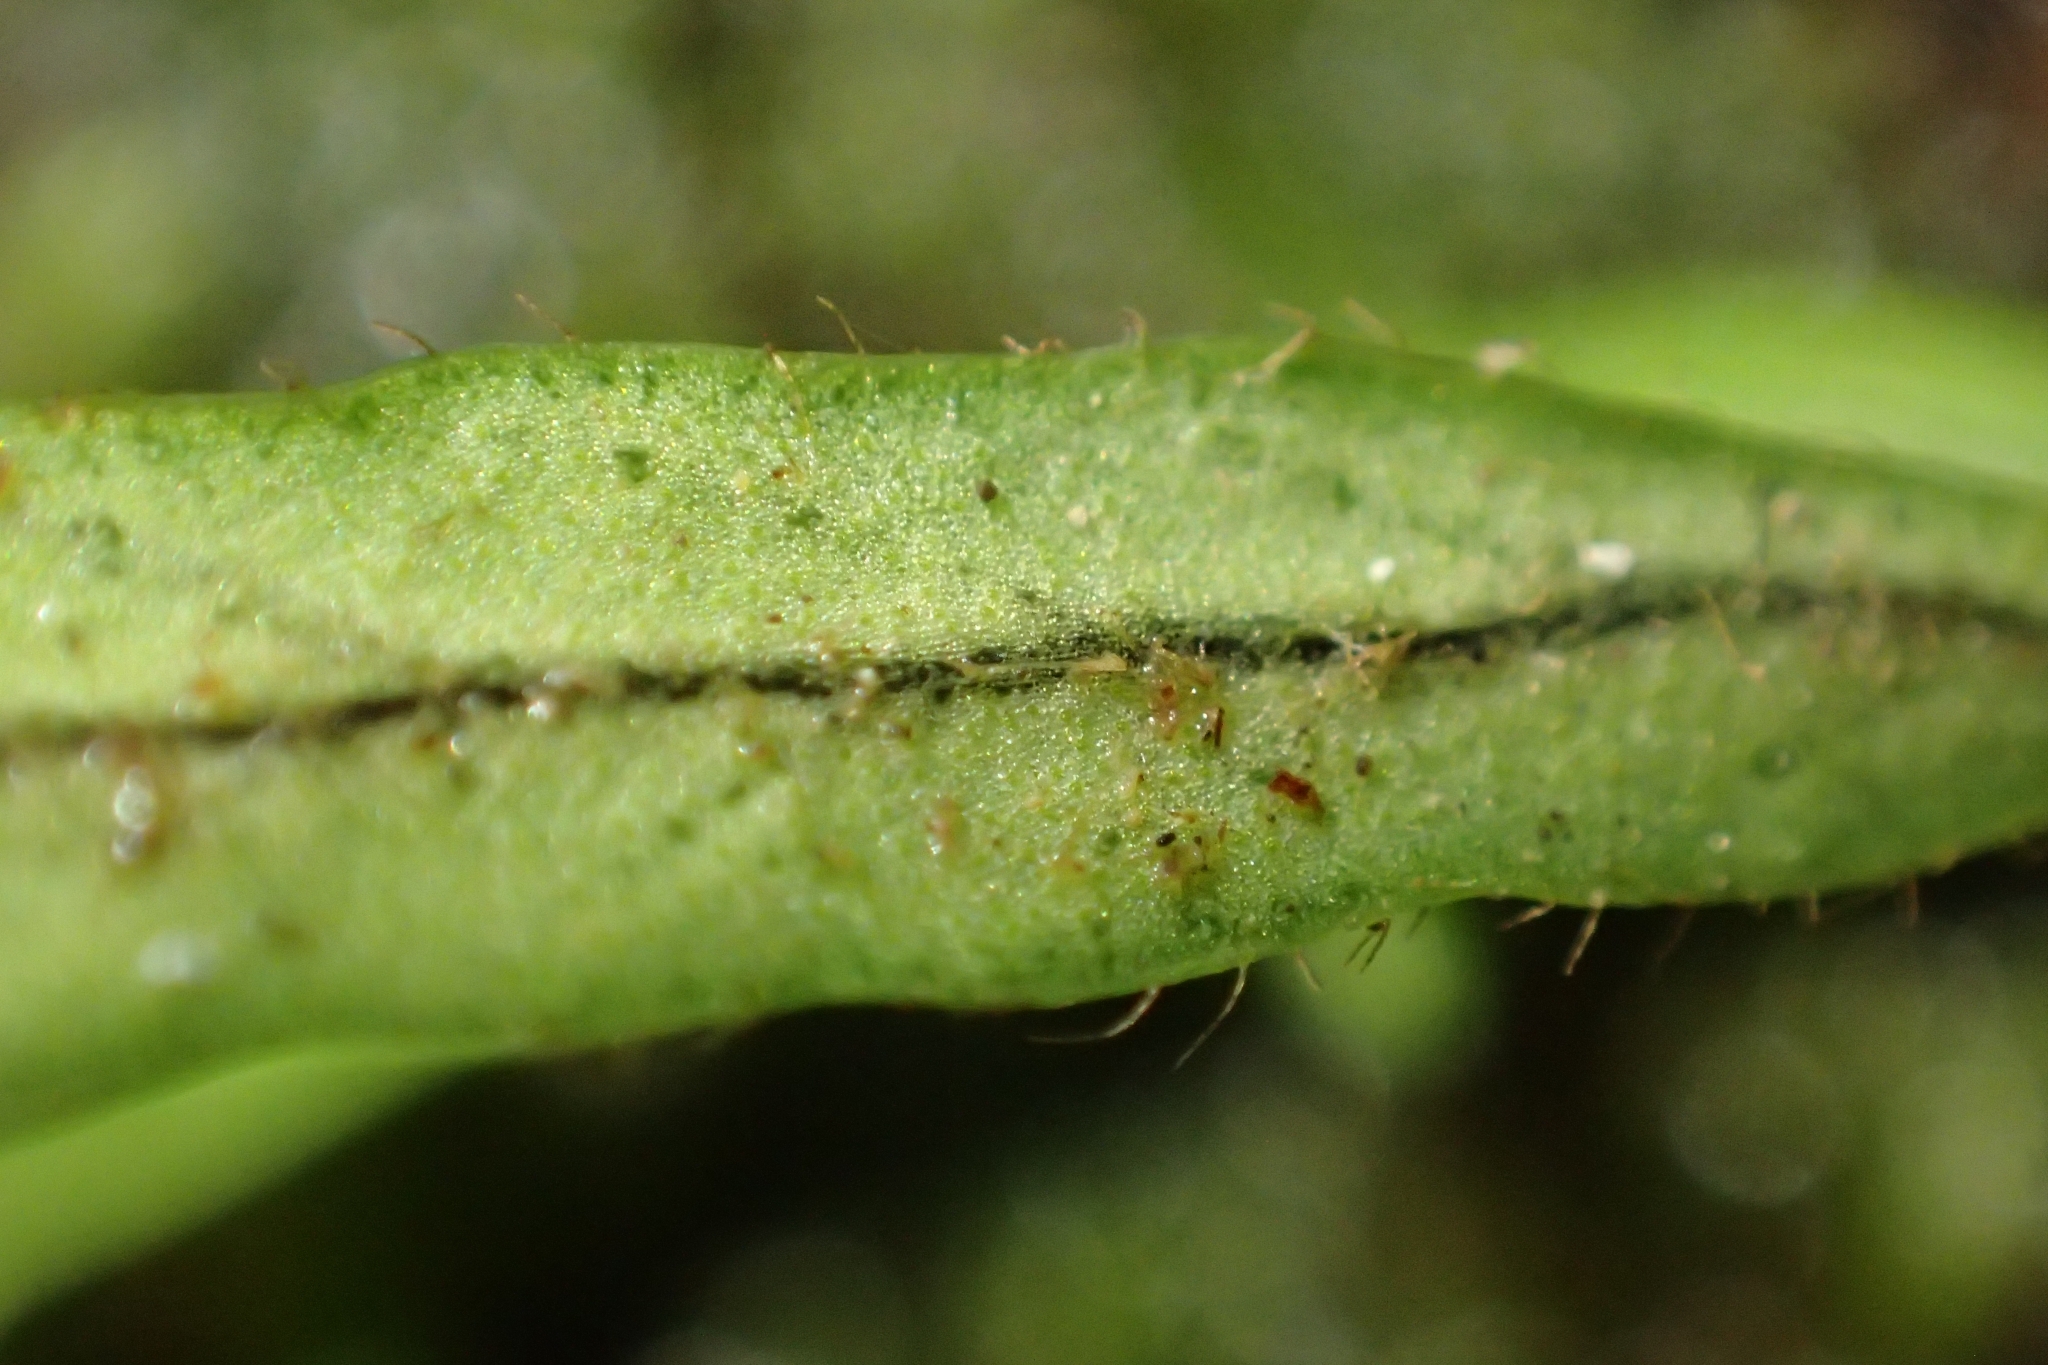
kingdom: Plantae
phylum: Tracheophyta
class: Polypodiopsida
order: Polypodiales
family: Polypodiaceae
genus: Notogrammitis
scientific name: Notogrammitis ciliata
